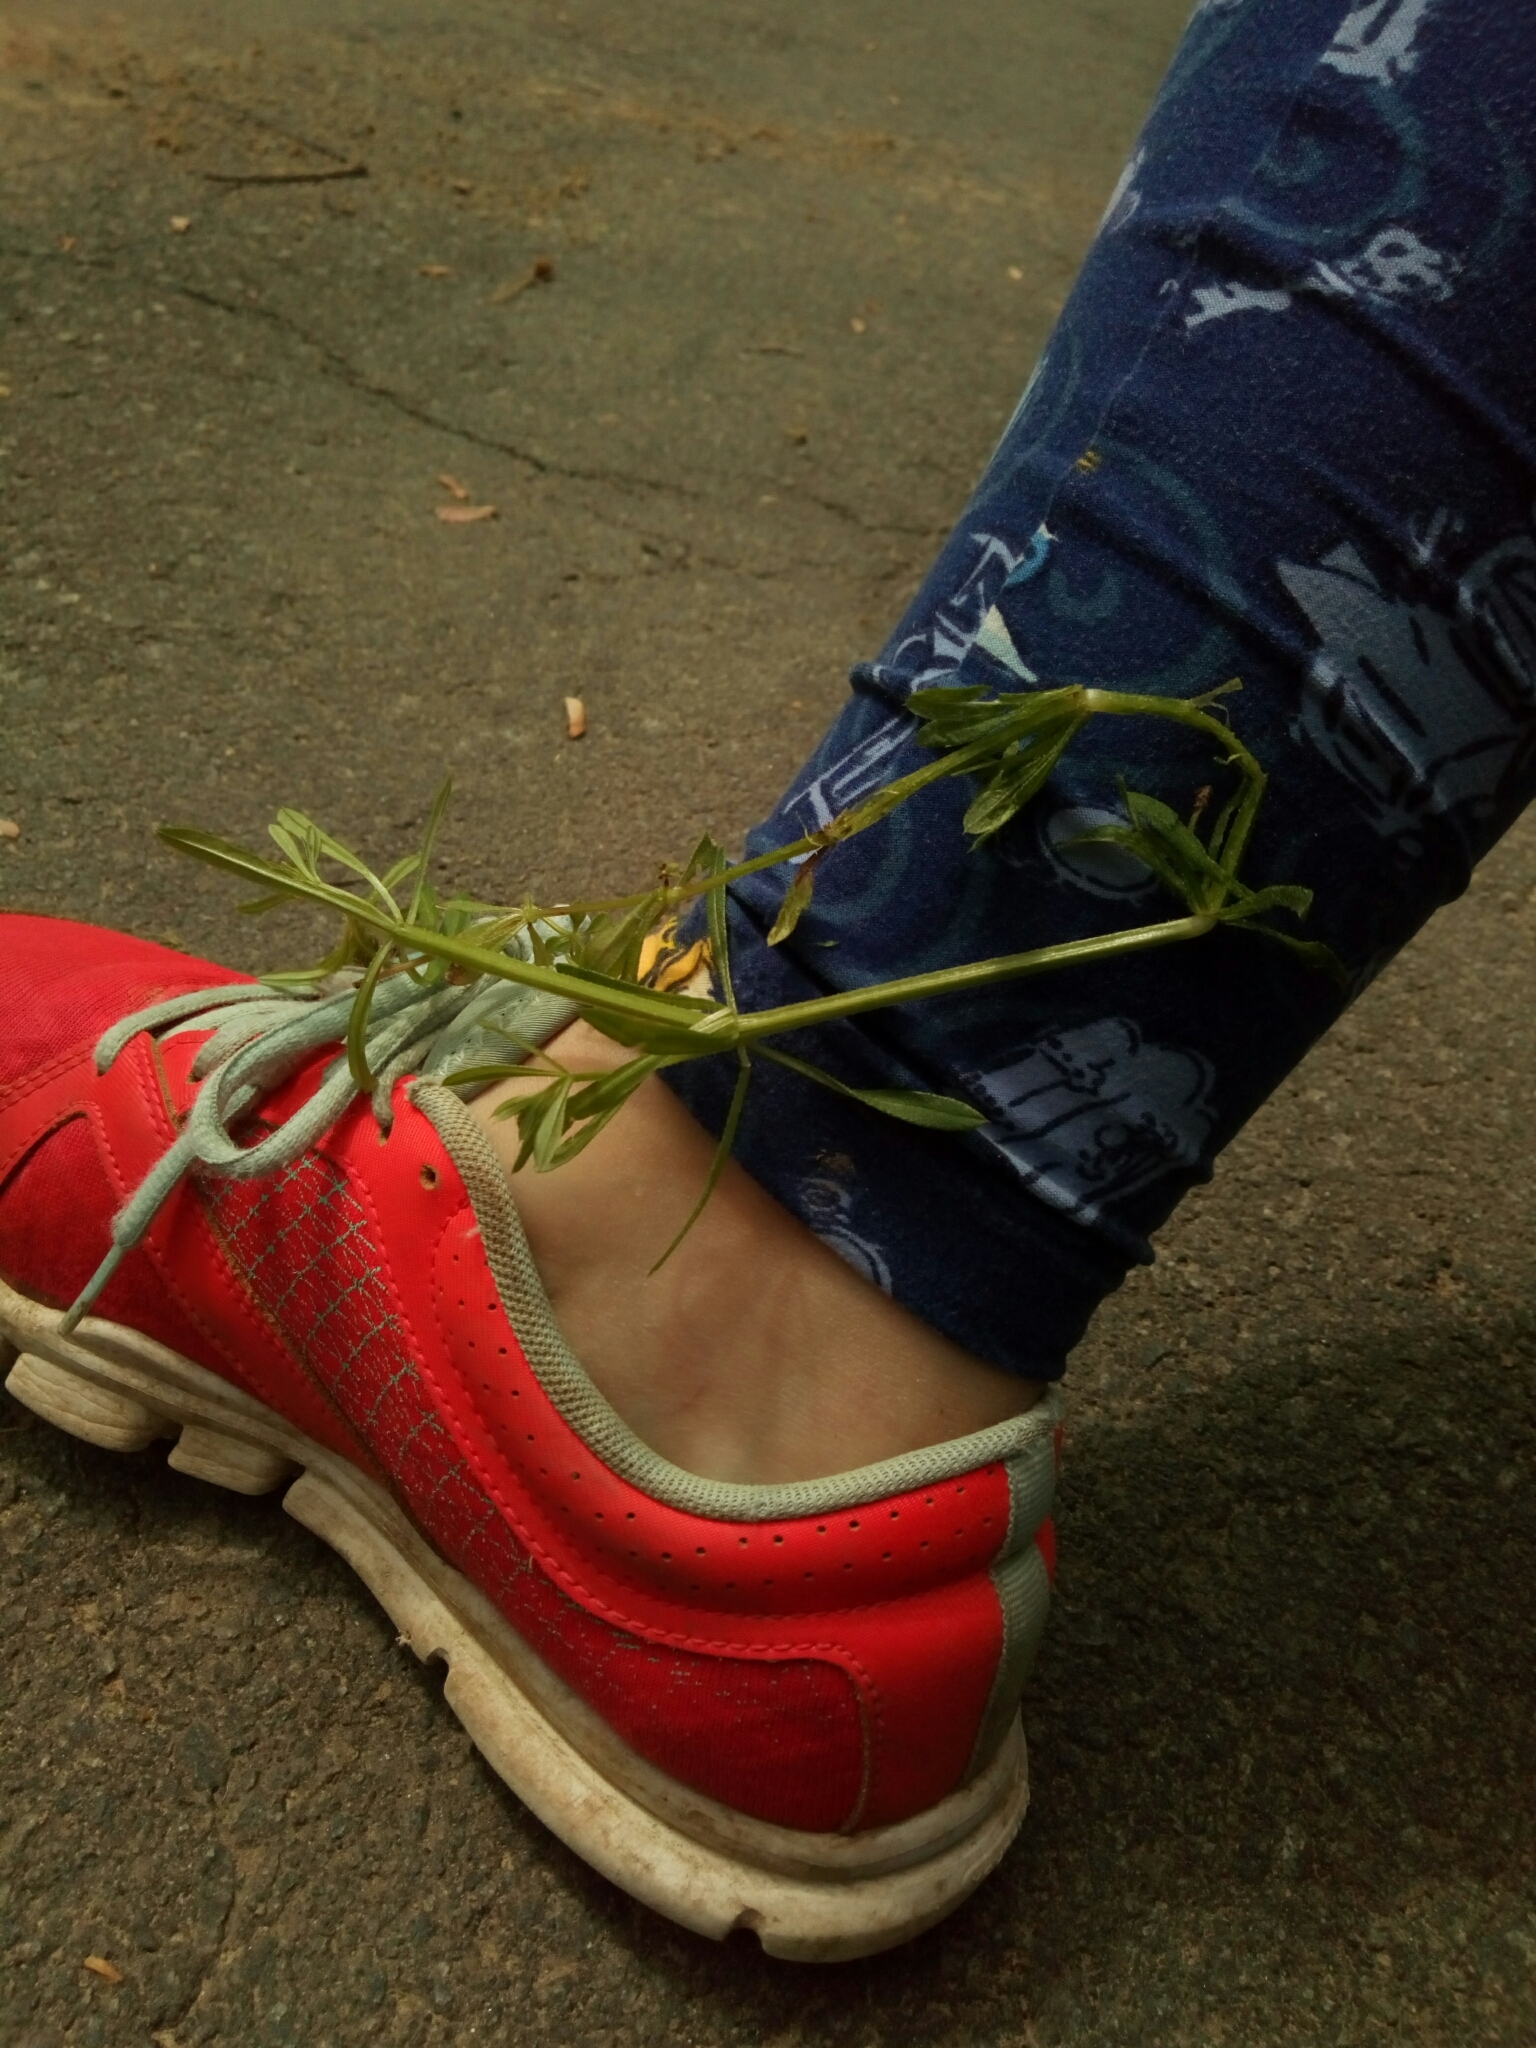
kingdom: Plantae
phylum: Tracheophyta
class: Magnoliopsida
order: Gentianales
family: Rubiaceae
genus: Galium
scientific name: Galium aparine
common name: Cleavers
